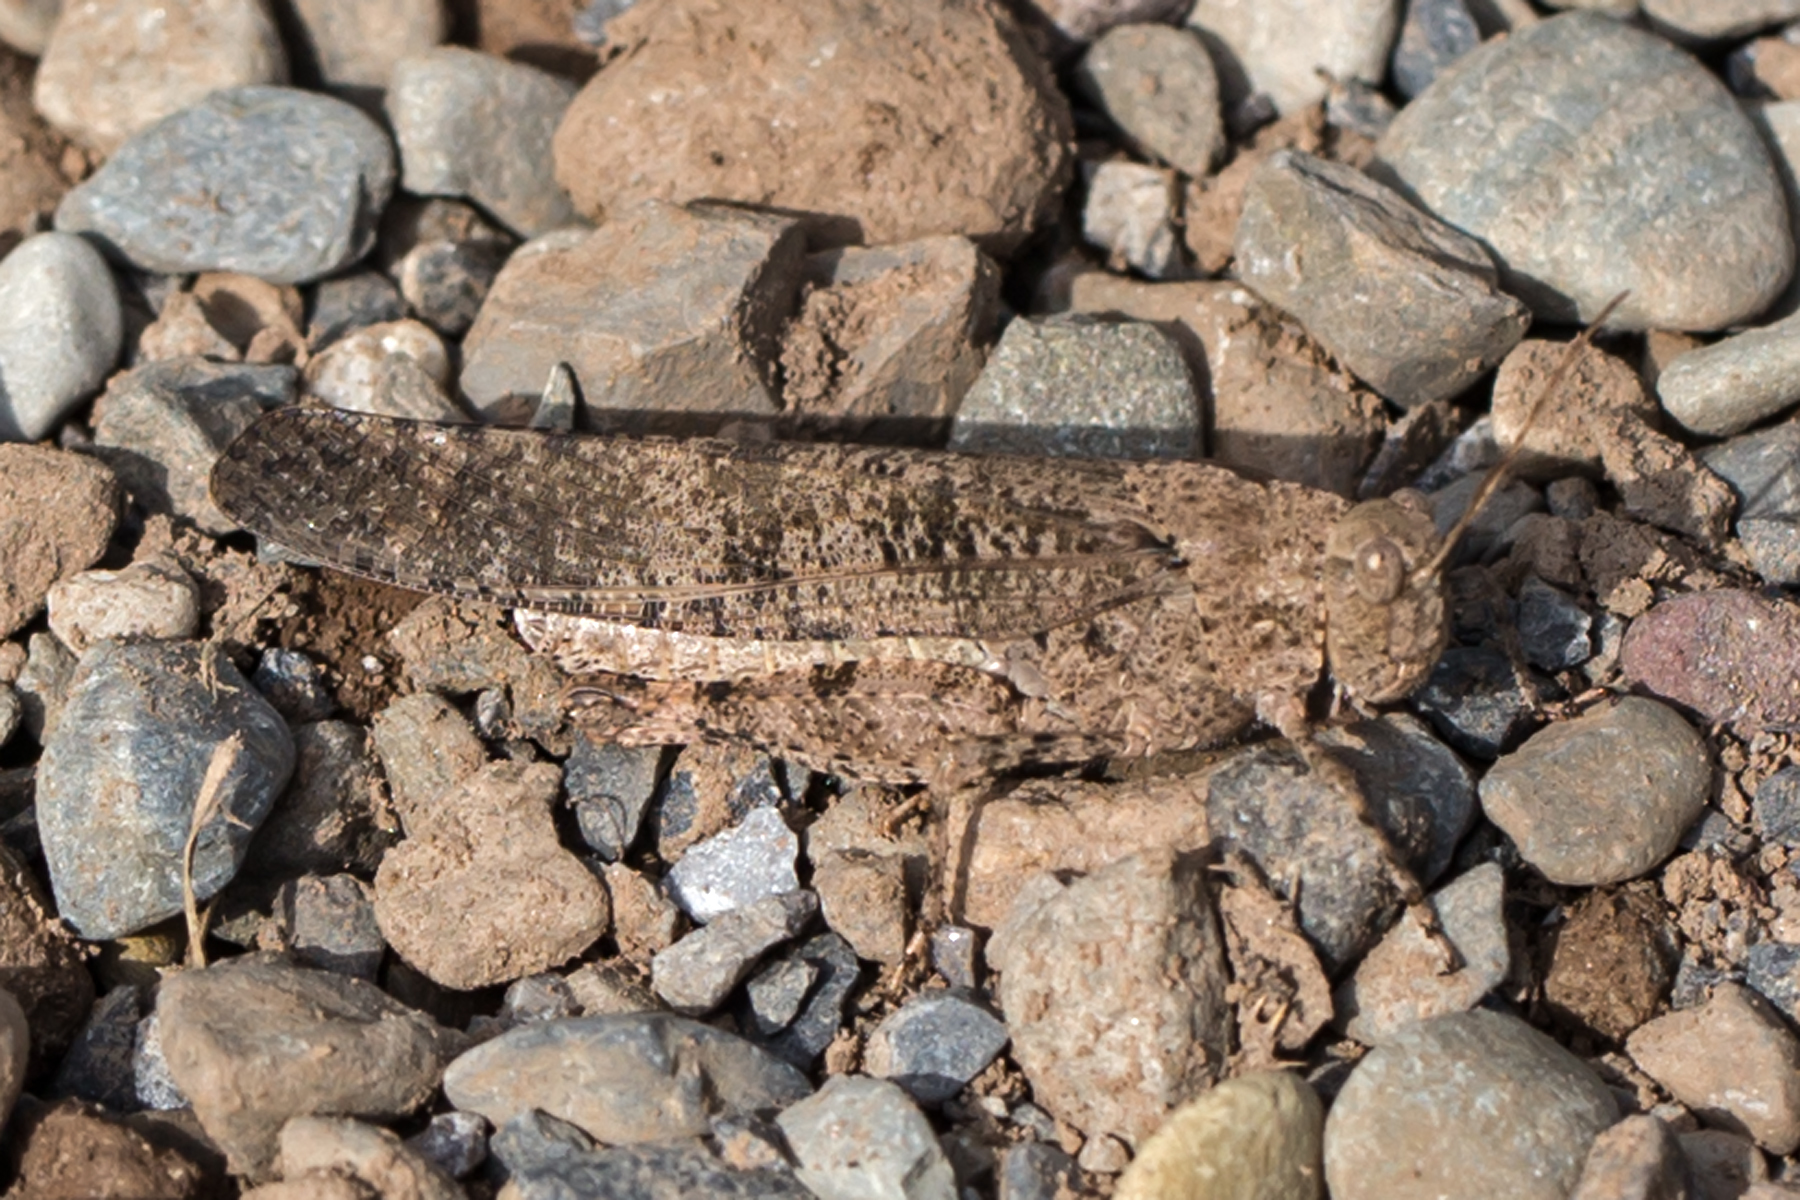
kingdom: Animalia
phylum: Arthropoda
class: Insecta
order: Orthoptera
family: Acrididae
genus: Dissosteira
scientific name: Dissosteira carolina
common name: Carolina grasshopper
